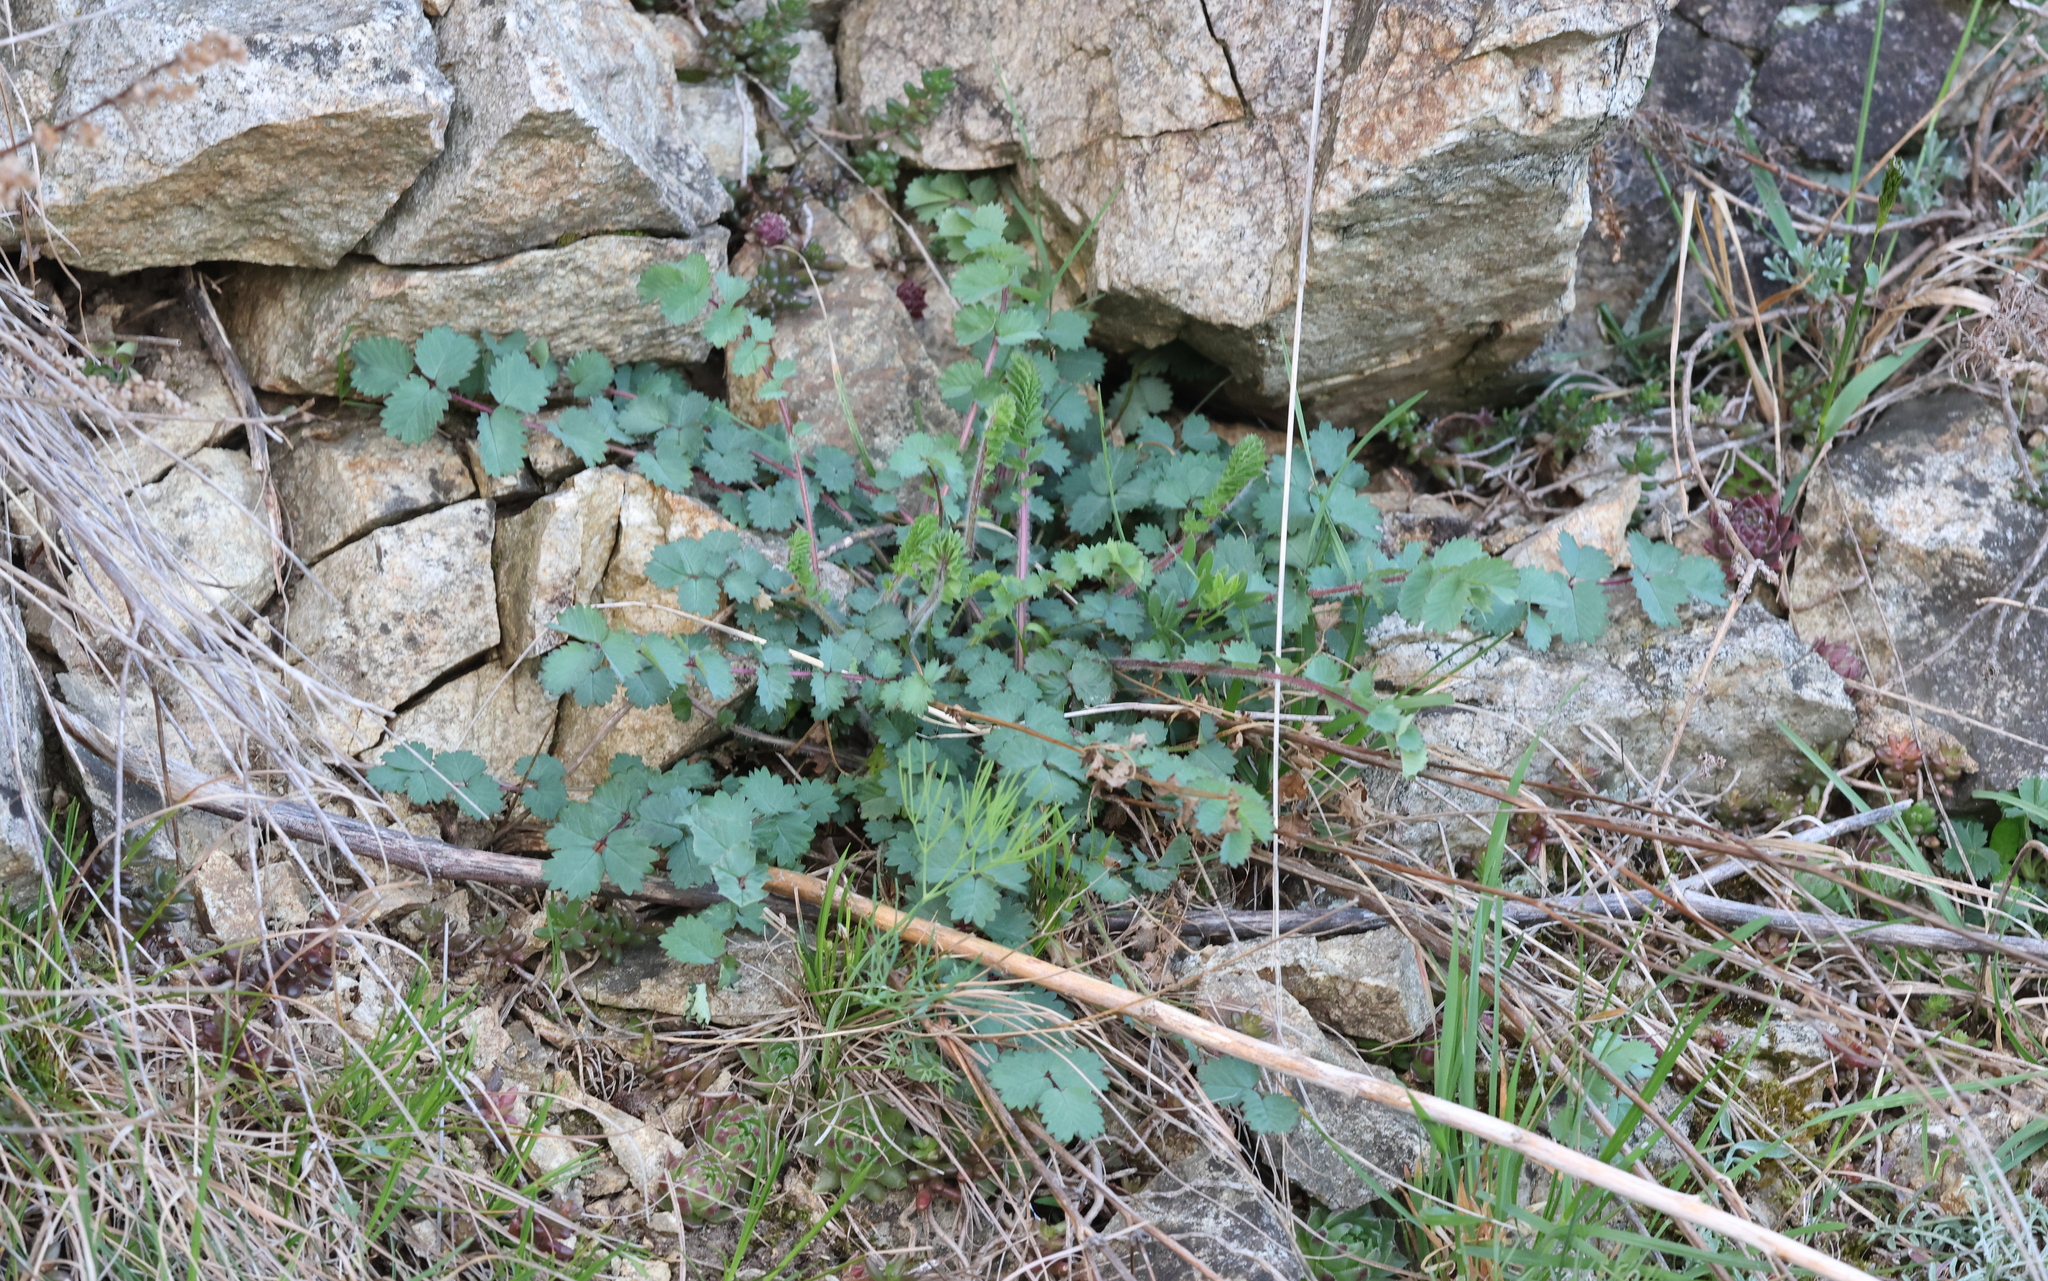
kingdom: Plantae
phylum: Tracheophyta
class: Magnoliopsida
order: Rosales
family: Rosaceae
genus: Poterium
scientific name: Poterium sanguisorba
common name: Salad burnet
